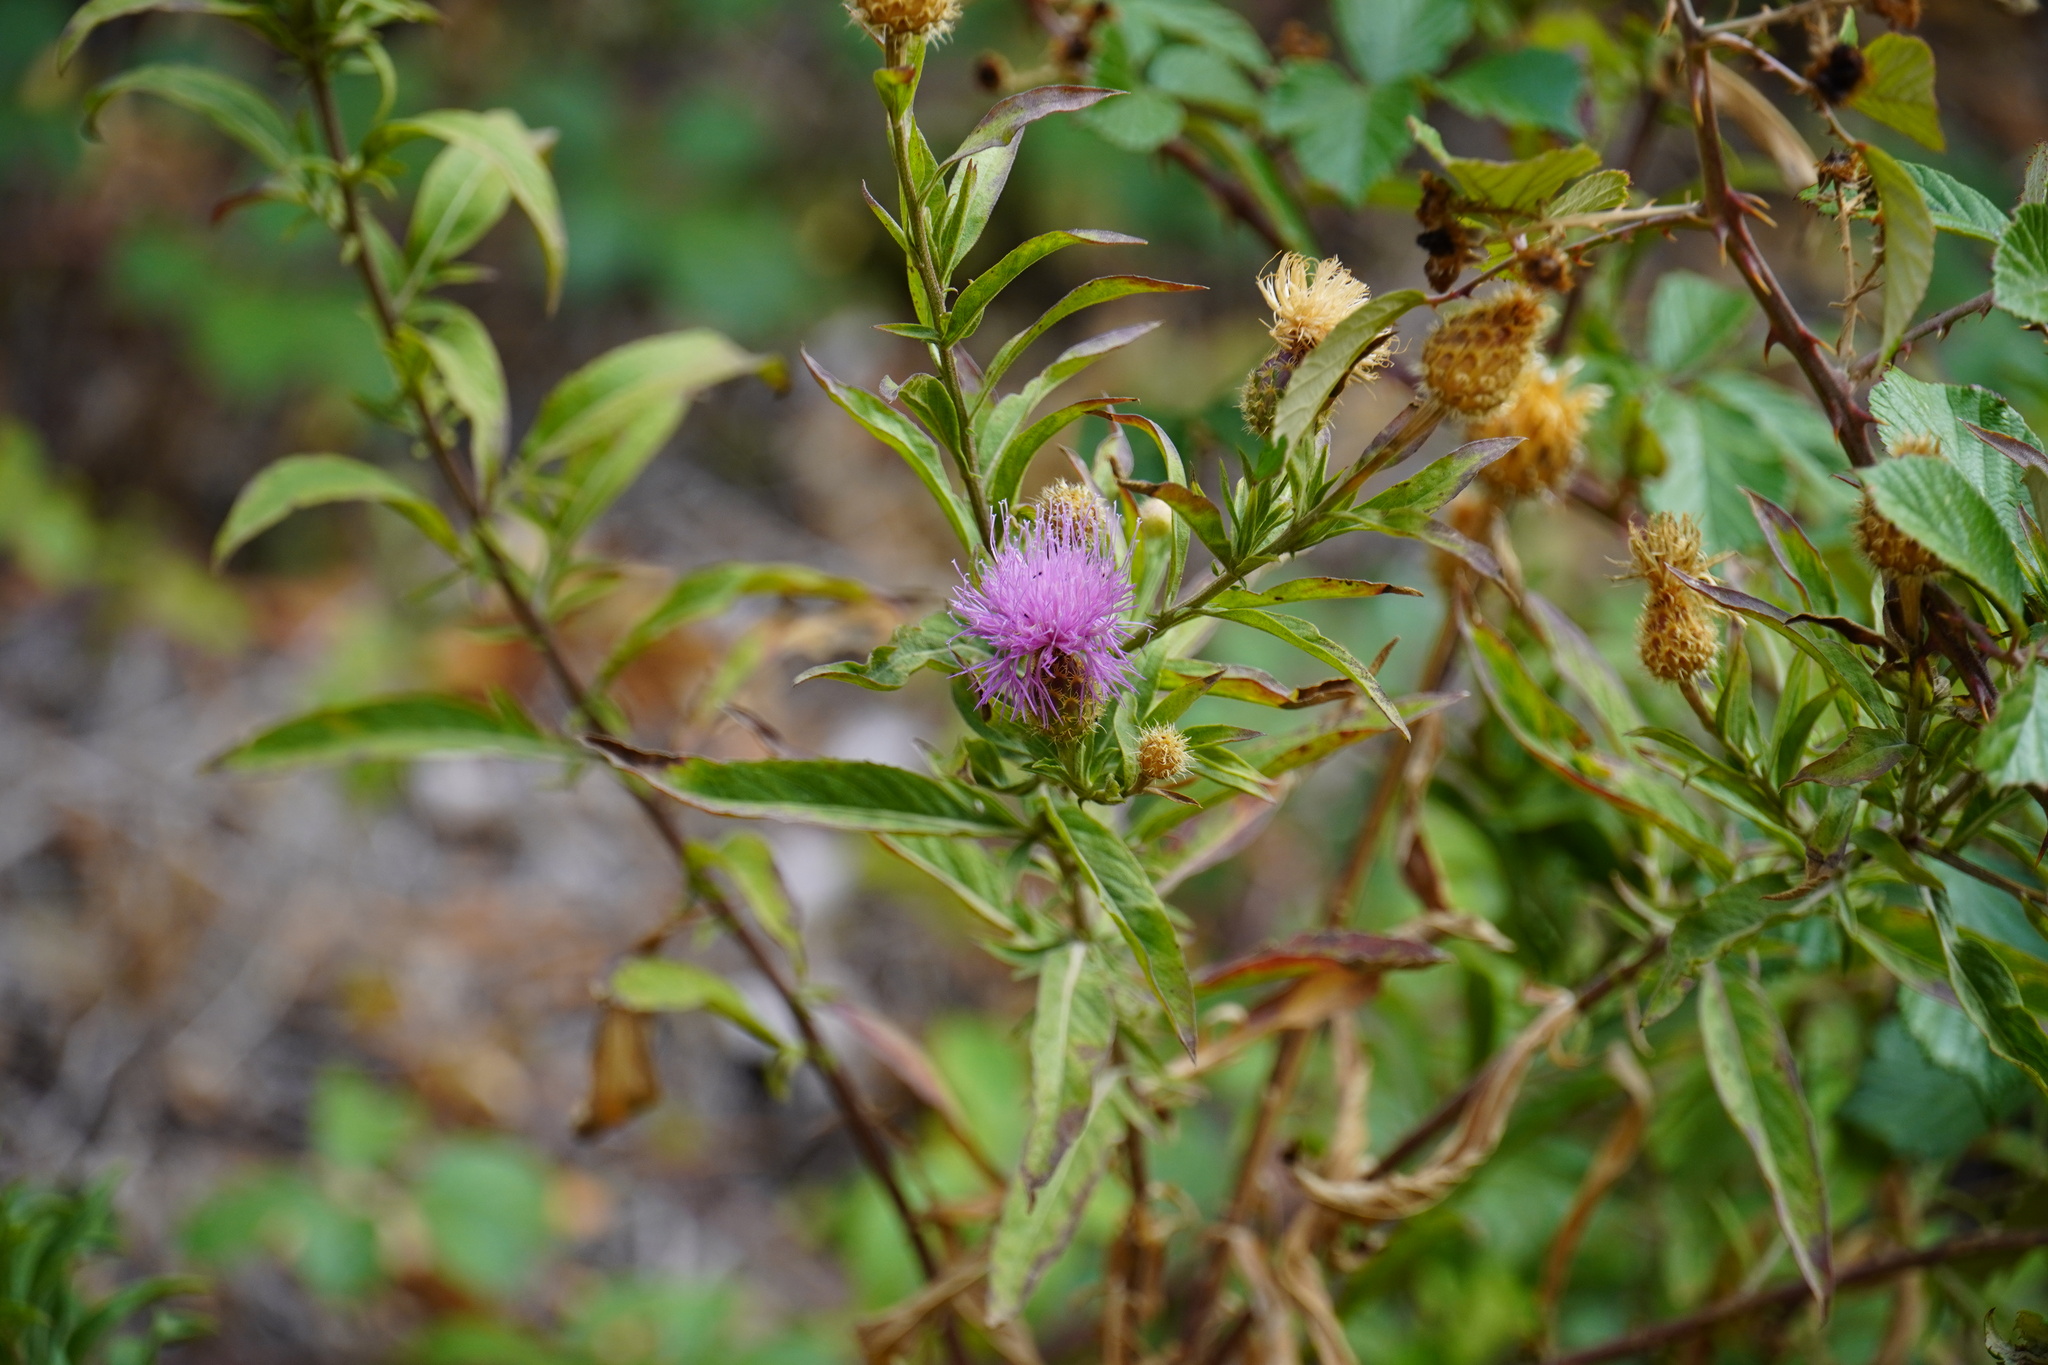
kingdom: Plantae
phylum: Tracheophyta
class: Magnoliopsida
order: Asterales
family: Asteraceae
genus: Cheirolophus
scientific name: Cheirolophus sempervirens
